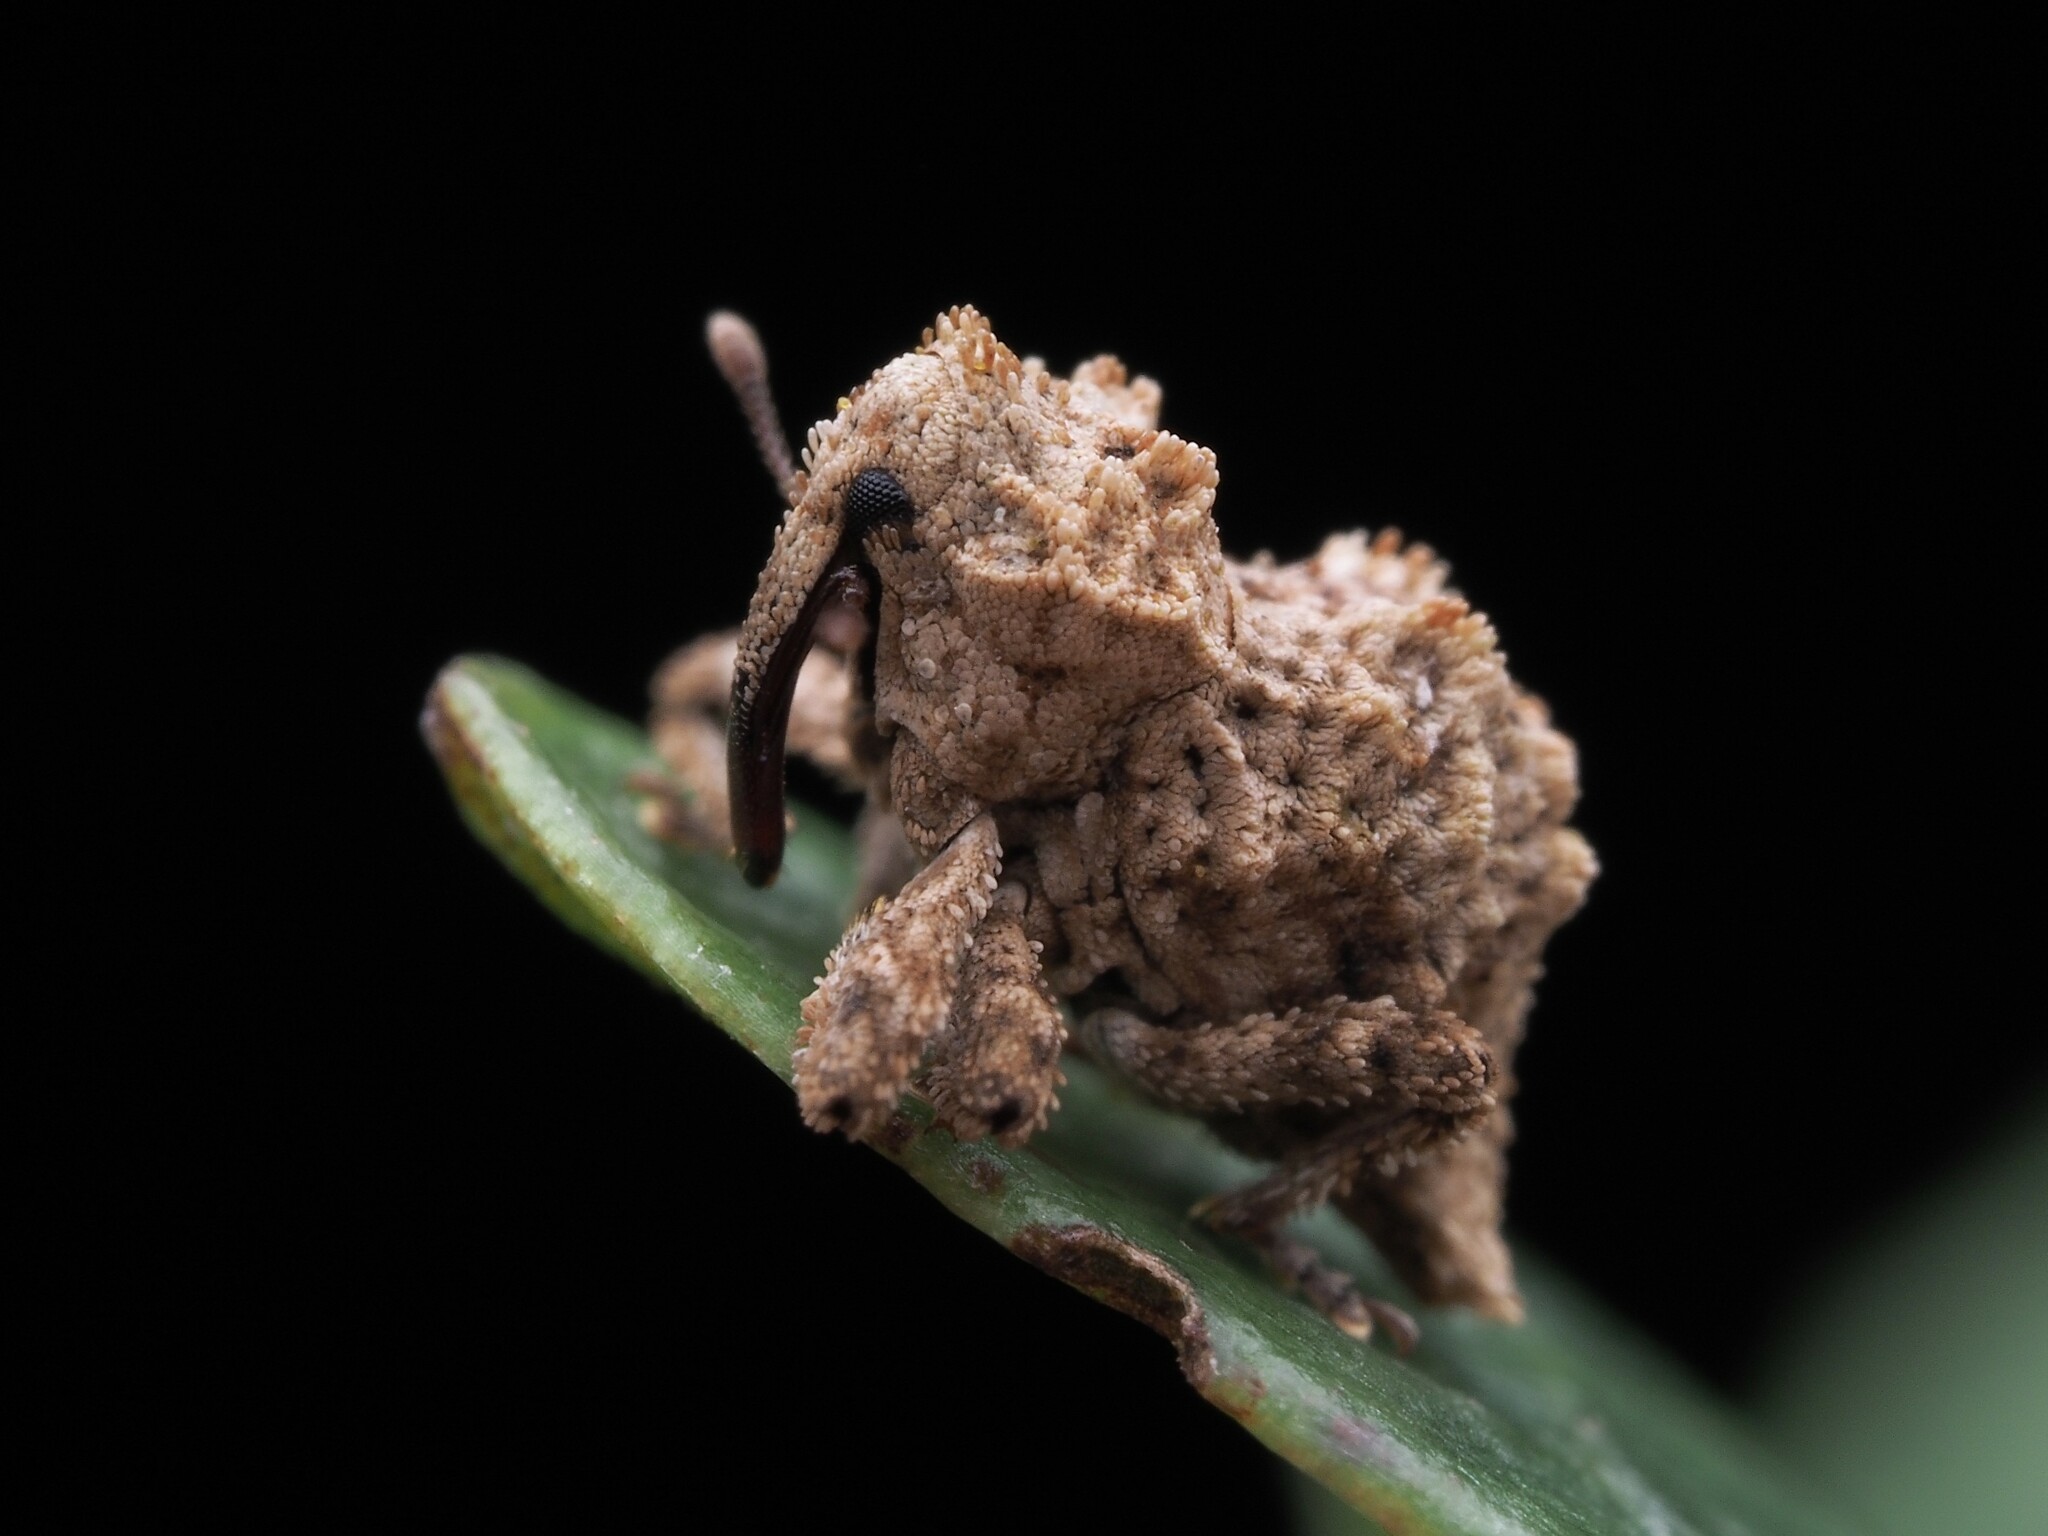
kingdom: Animalia
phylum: Arthropoda
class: Insecta
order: Coleoptera
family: Curculionidae
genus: Indecentia
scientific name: Indecentia nubila
